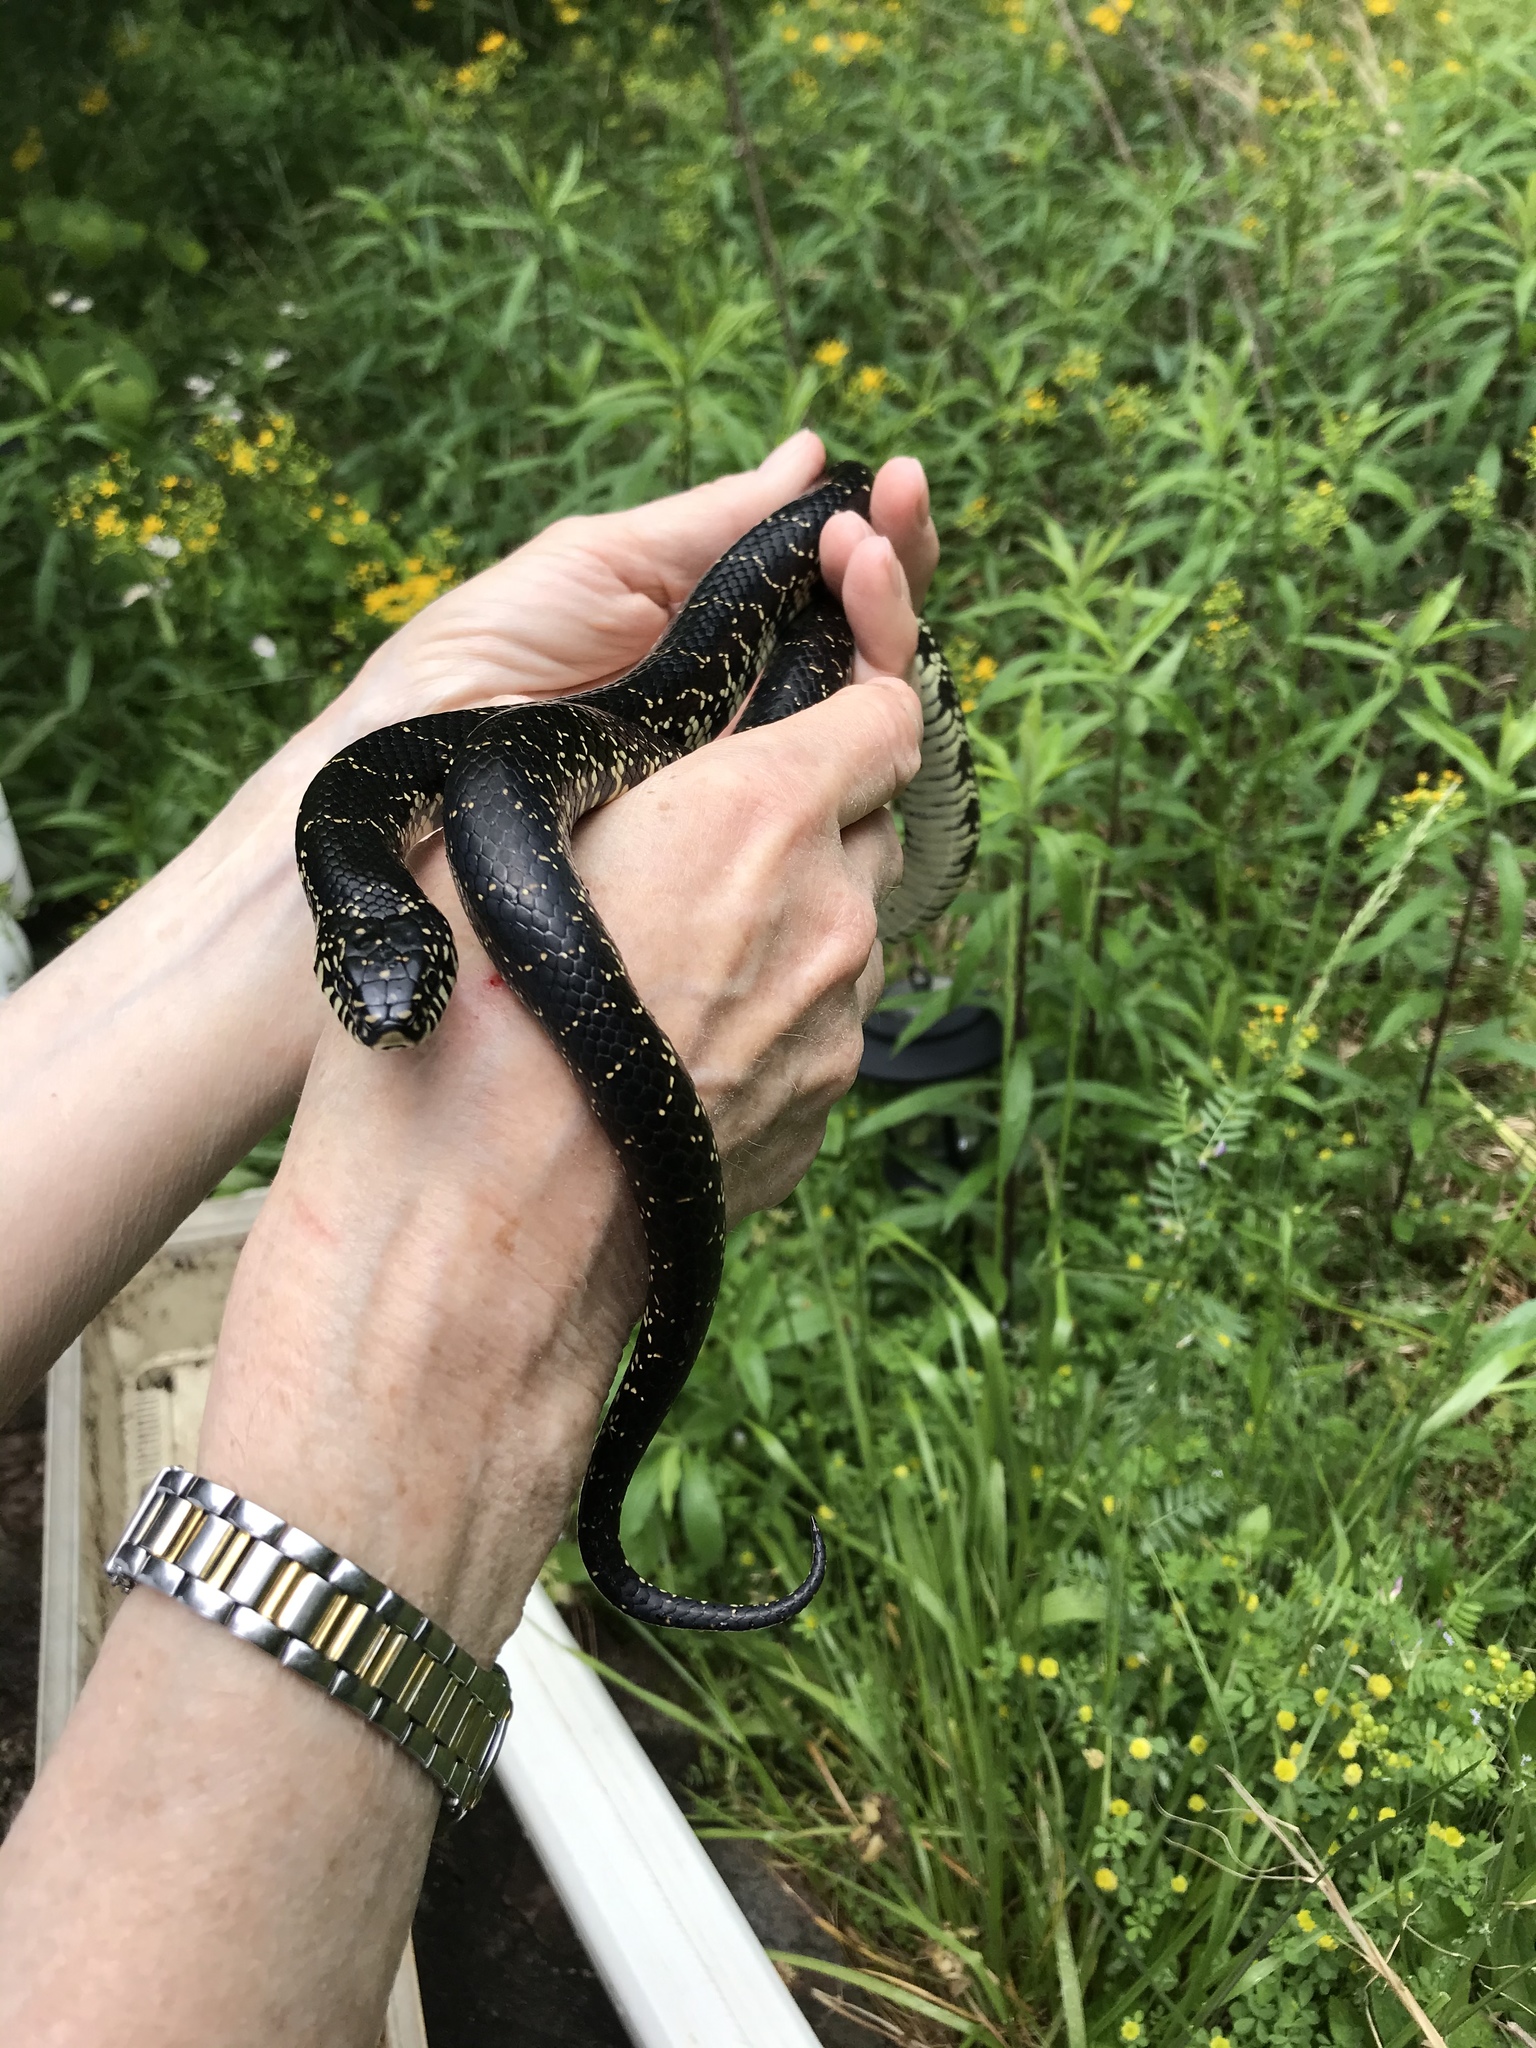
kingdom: Animalia
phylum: Chordata
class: Squamata
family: Colubridae
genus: Lampropeltis
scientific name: Lampropeltis nigra
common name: Black kingsnake
